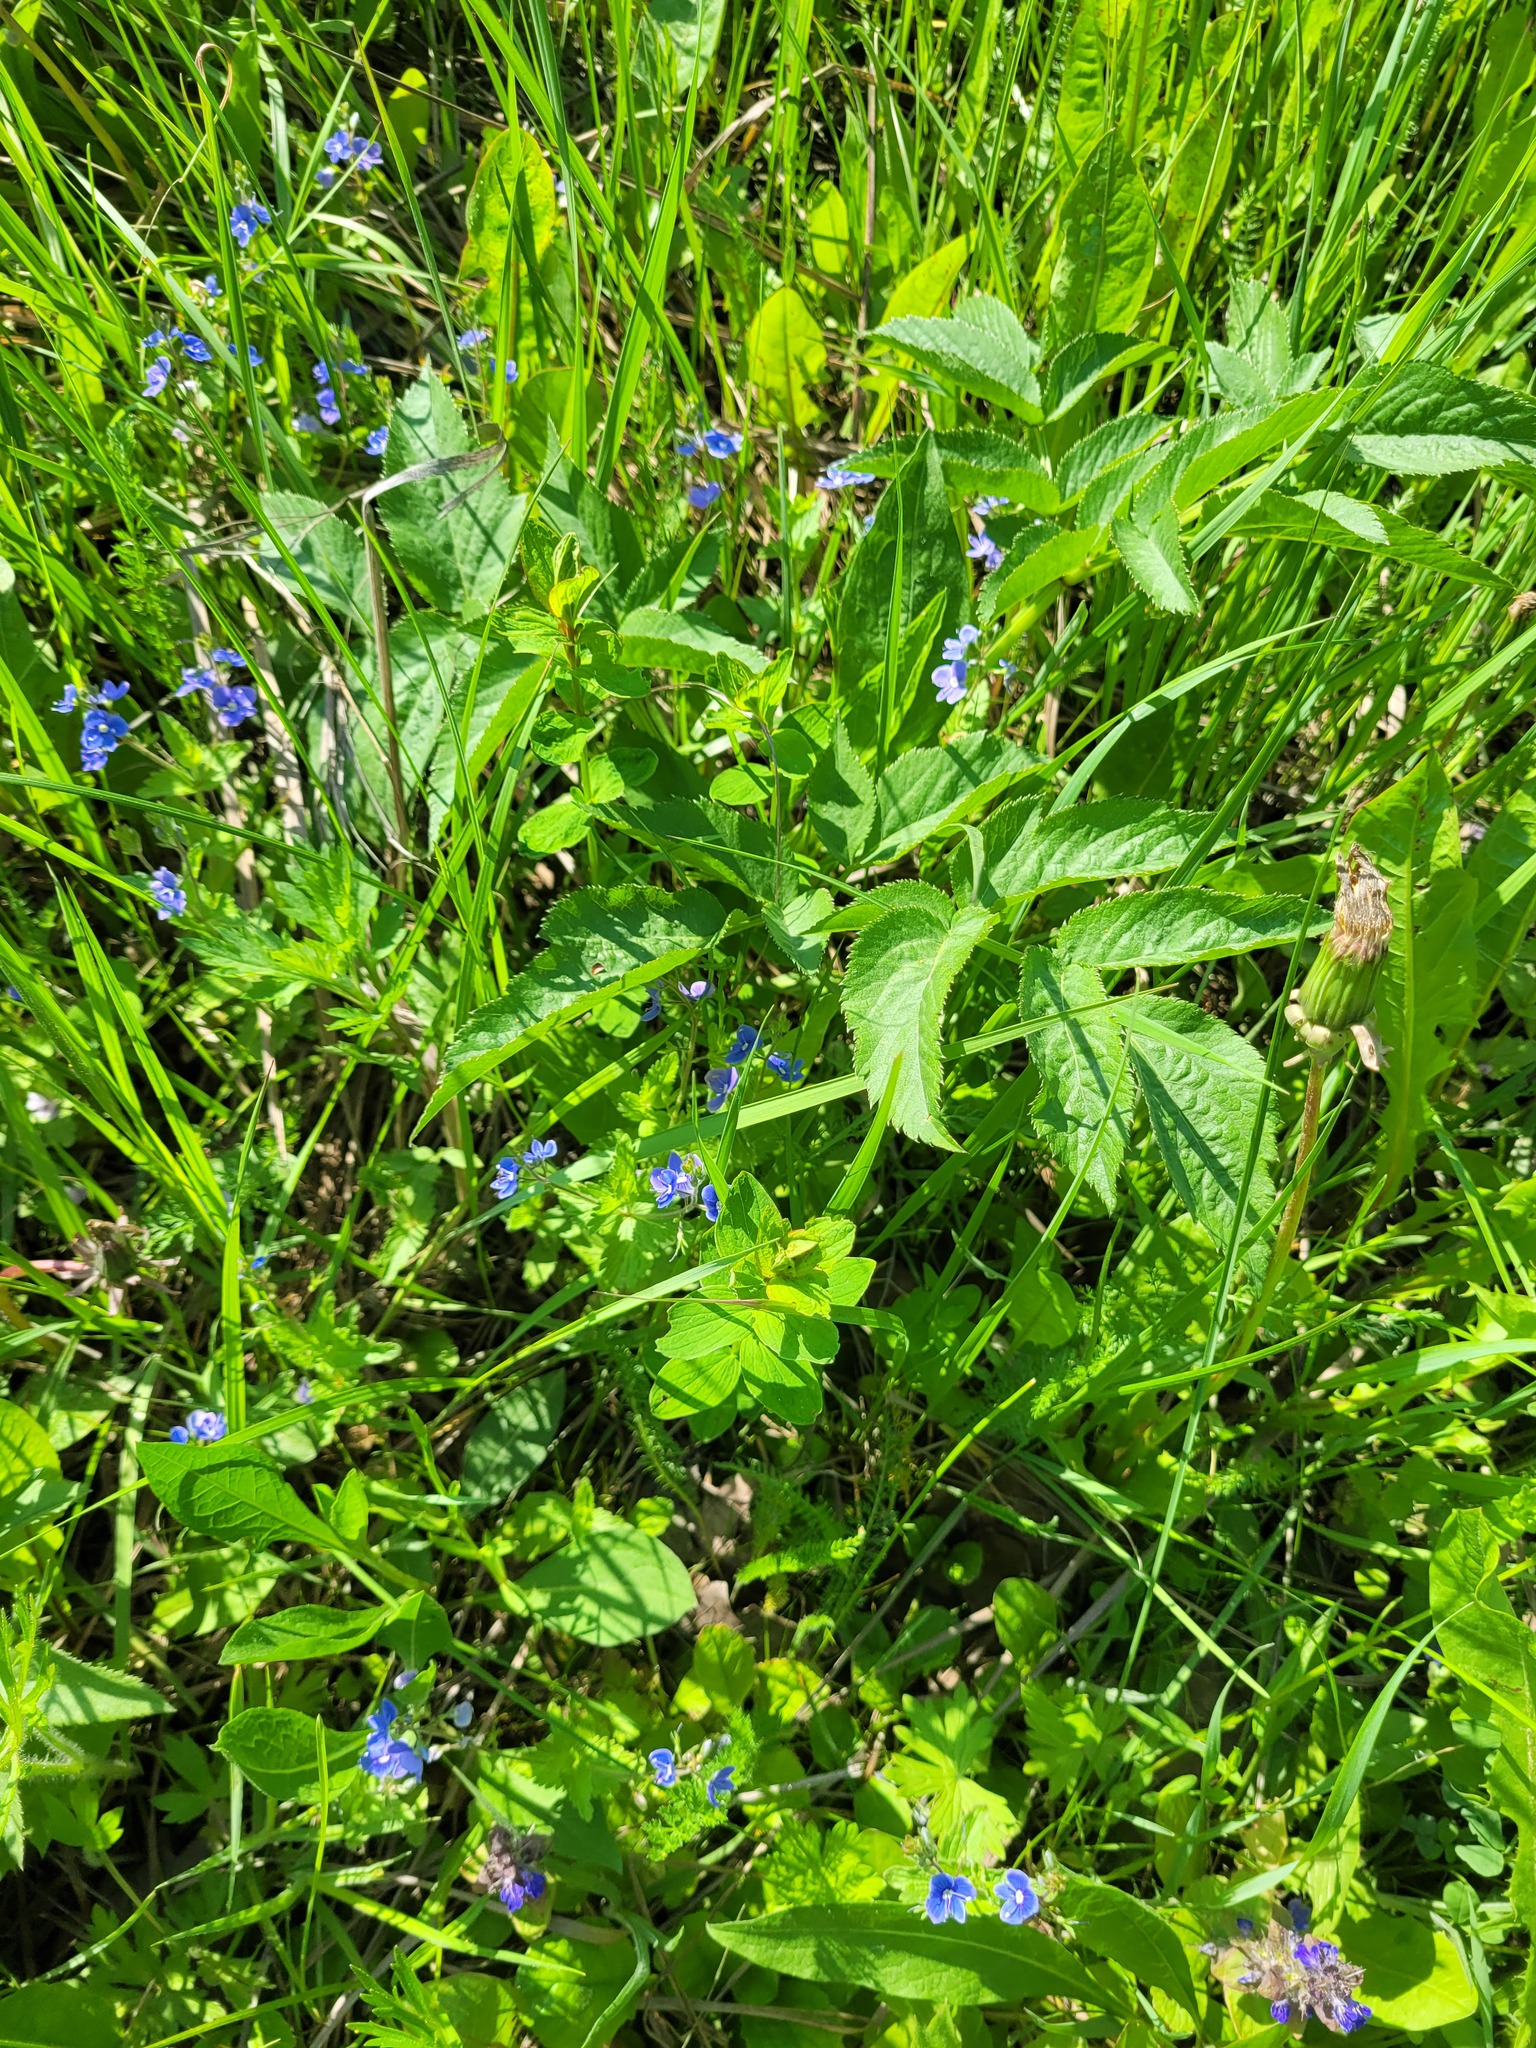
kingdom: Plantae
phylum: Tracheophyta
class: Magnoliopsida
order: Malpighiales
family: Hypericaceae
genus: Hypericum
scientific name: Hypericum maculatum
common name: Imperforate st. john's-wort
